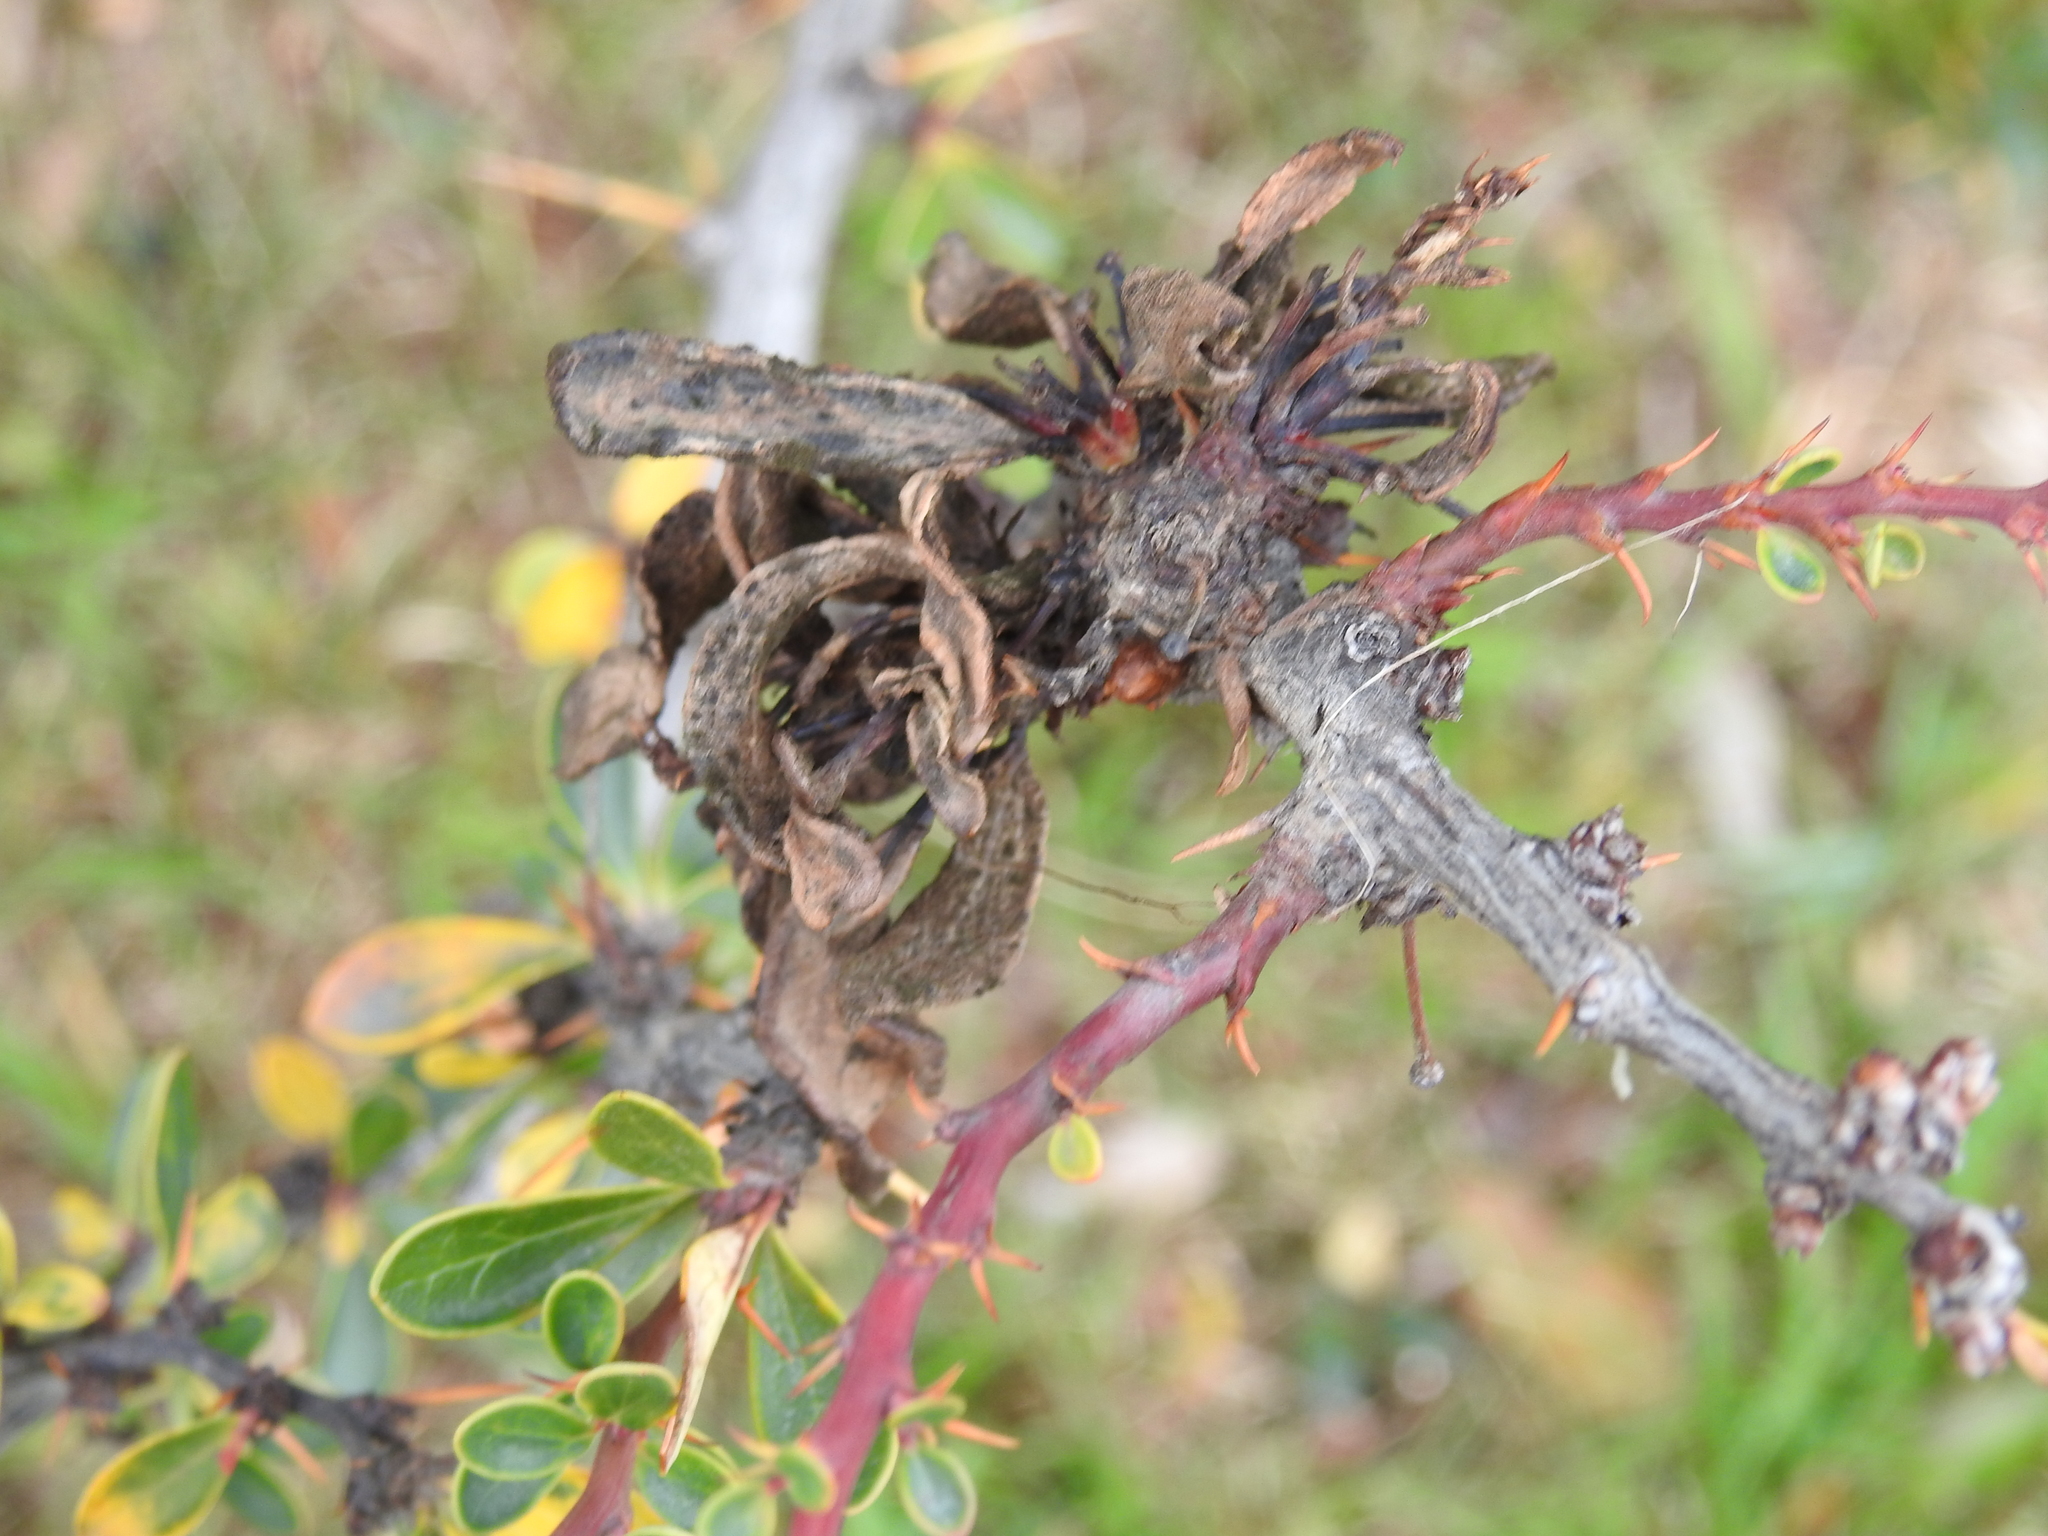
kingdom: Fungi
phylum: Basidiomycota
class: Pucciniomycetes
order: Pucciniales
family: Pucciniaceae
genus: Puccinia
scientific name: Puccinia magellanica
